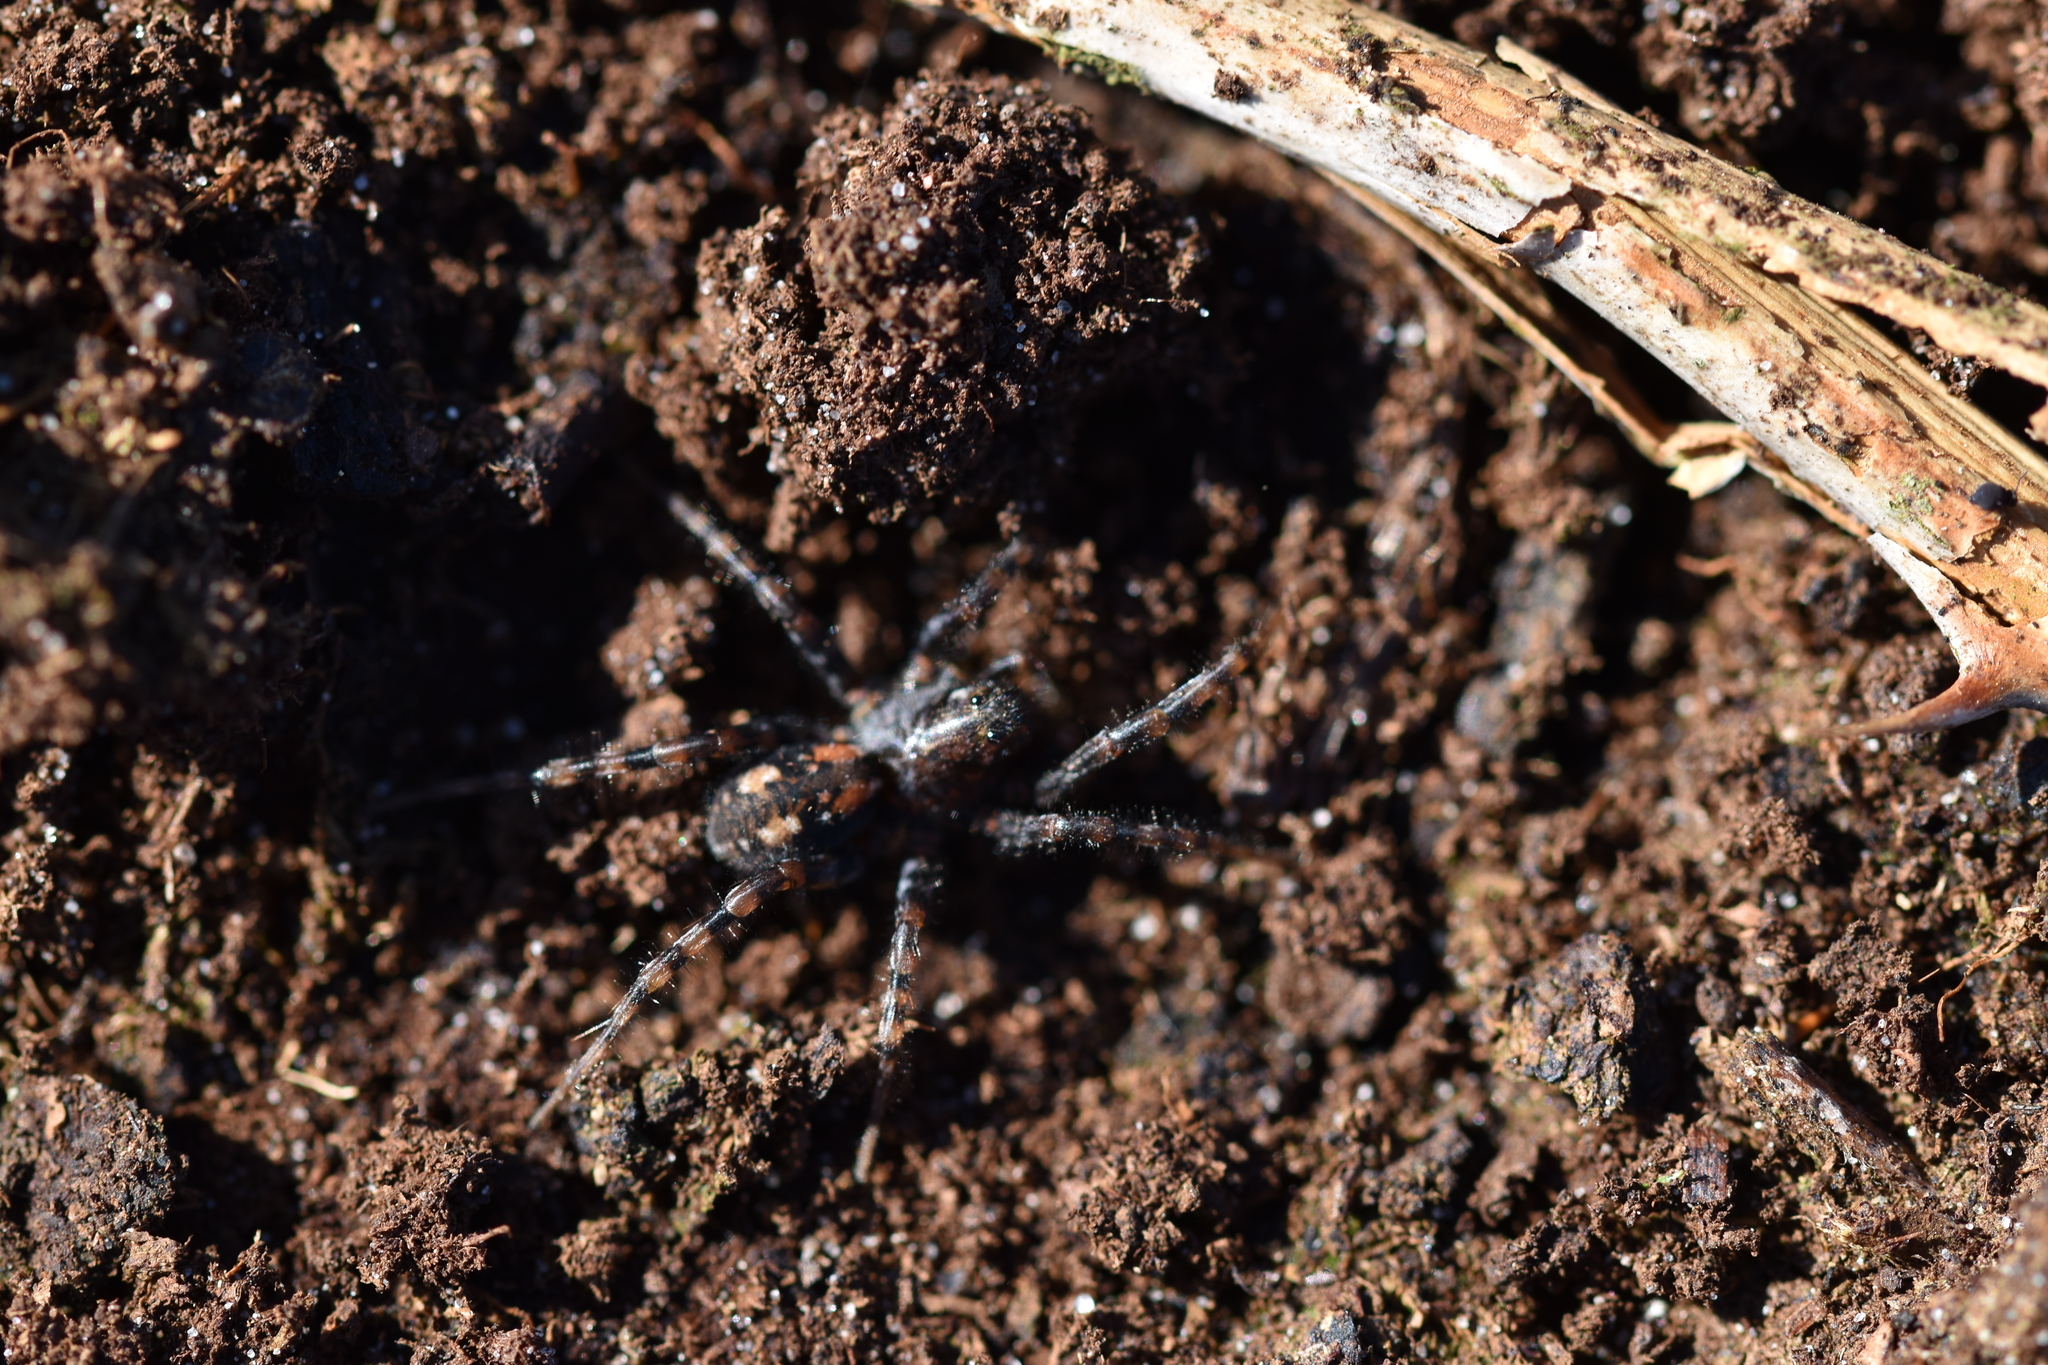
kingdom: Animalia
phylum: Arthropoda
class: Arachnida
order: Araneae
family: Lycosidae
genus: Arctosa
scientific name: Arctosa perita
